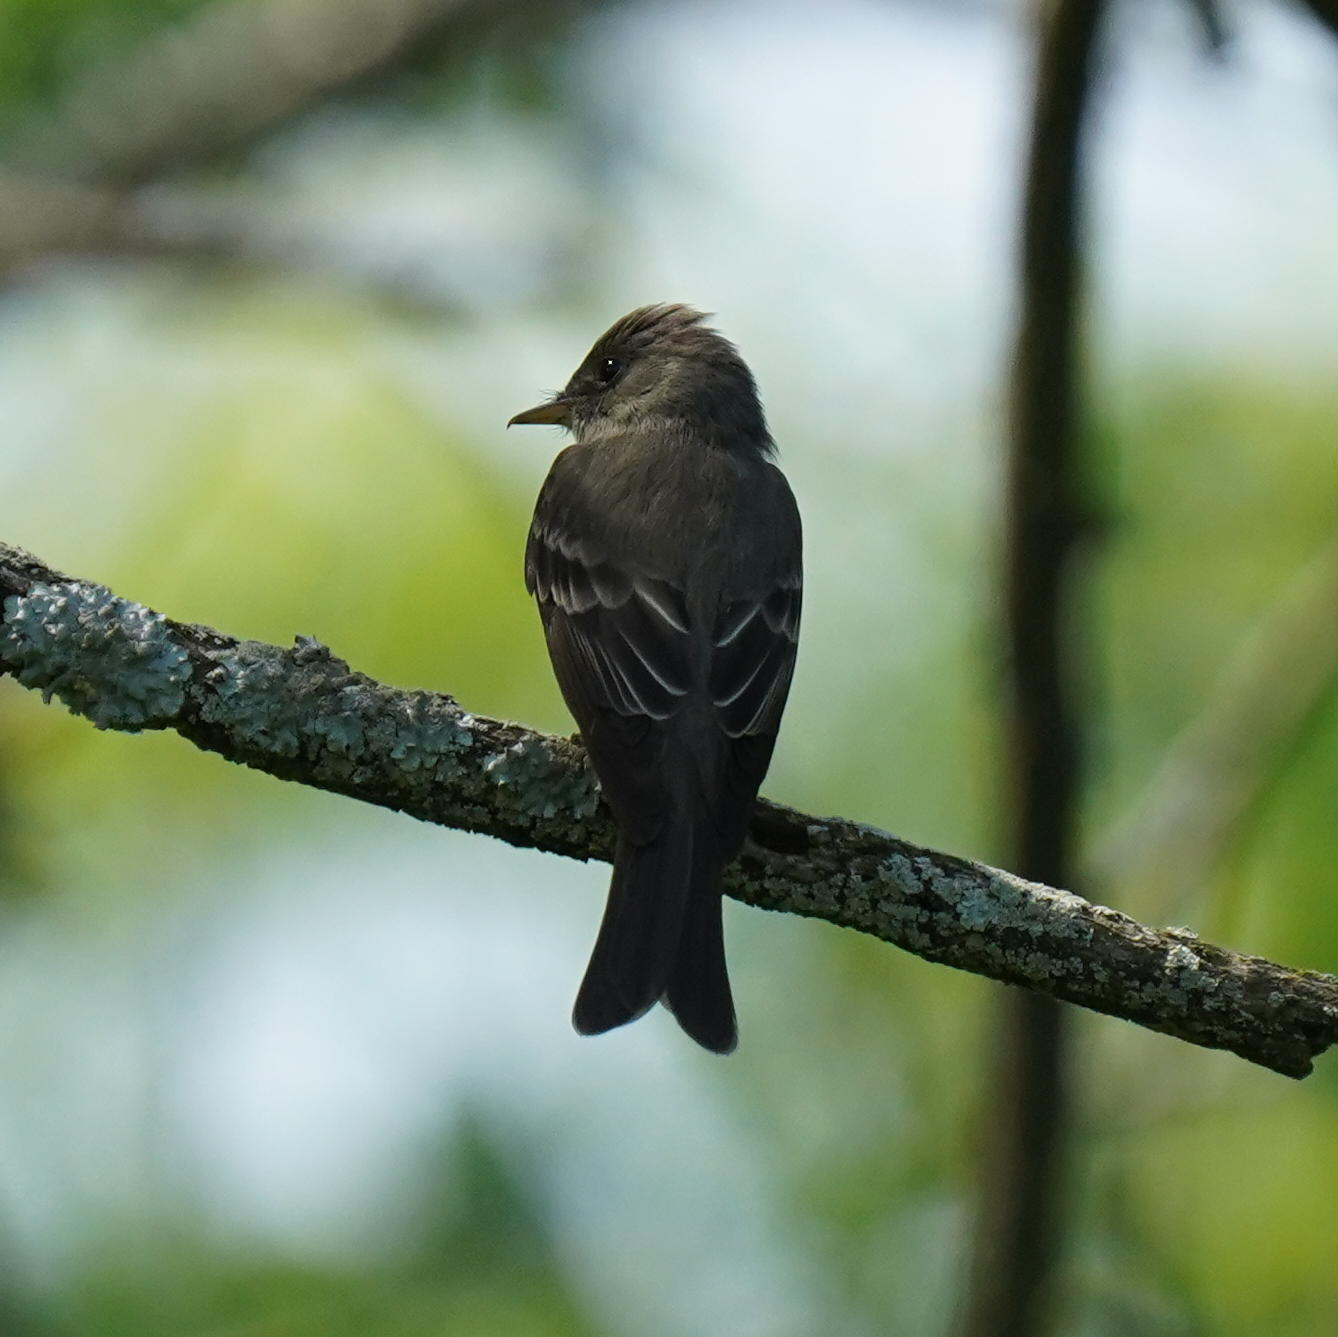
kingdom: Animalia
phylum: Chordata
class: Aves
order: Passeriformes
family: Tyrannidae
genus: Contopus
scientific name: Contopus virens
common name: Eastern wood-pewee
